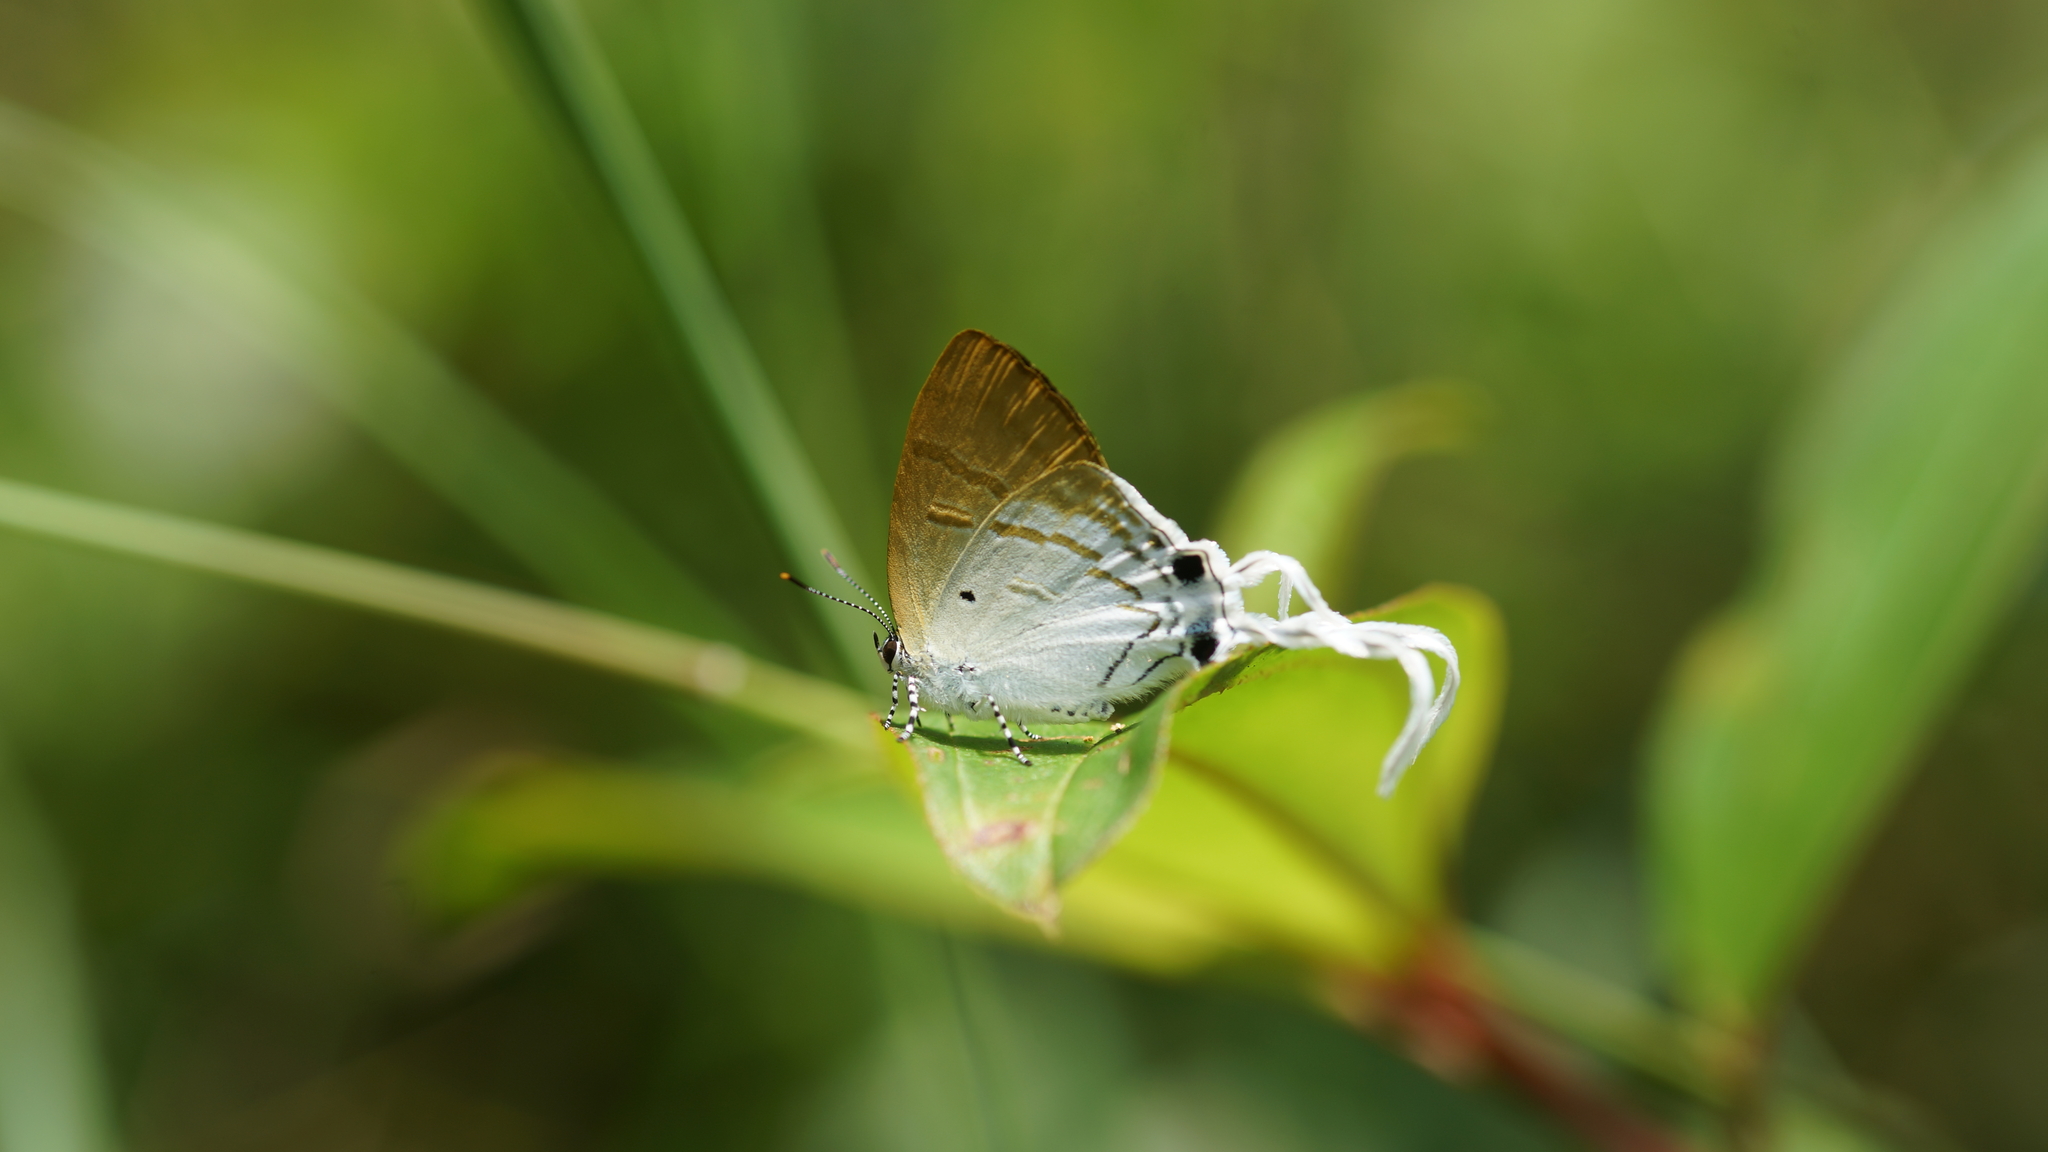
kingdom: Animalia
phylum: Arthropoda
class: Insecta
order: Lepidoptera
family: Lycaenidae
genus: Zeltus
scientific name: Zeltus amasa
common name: Fluffy tit
